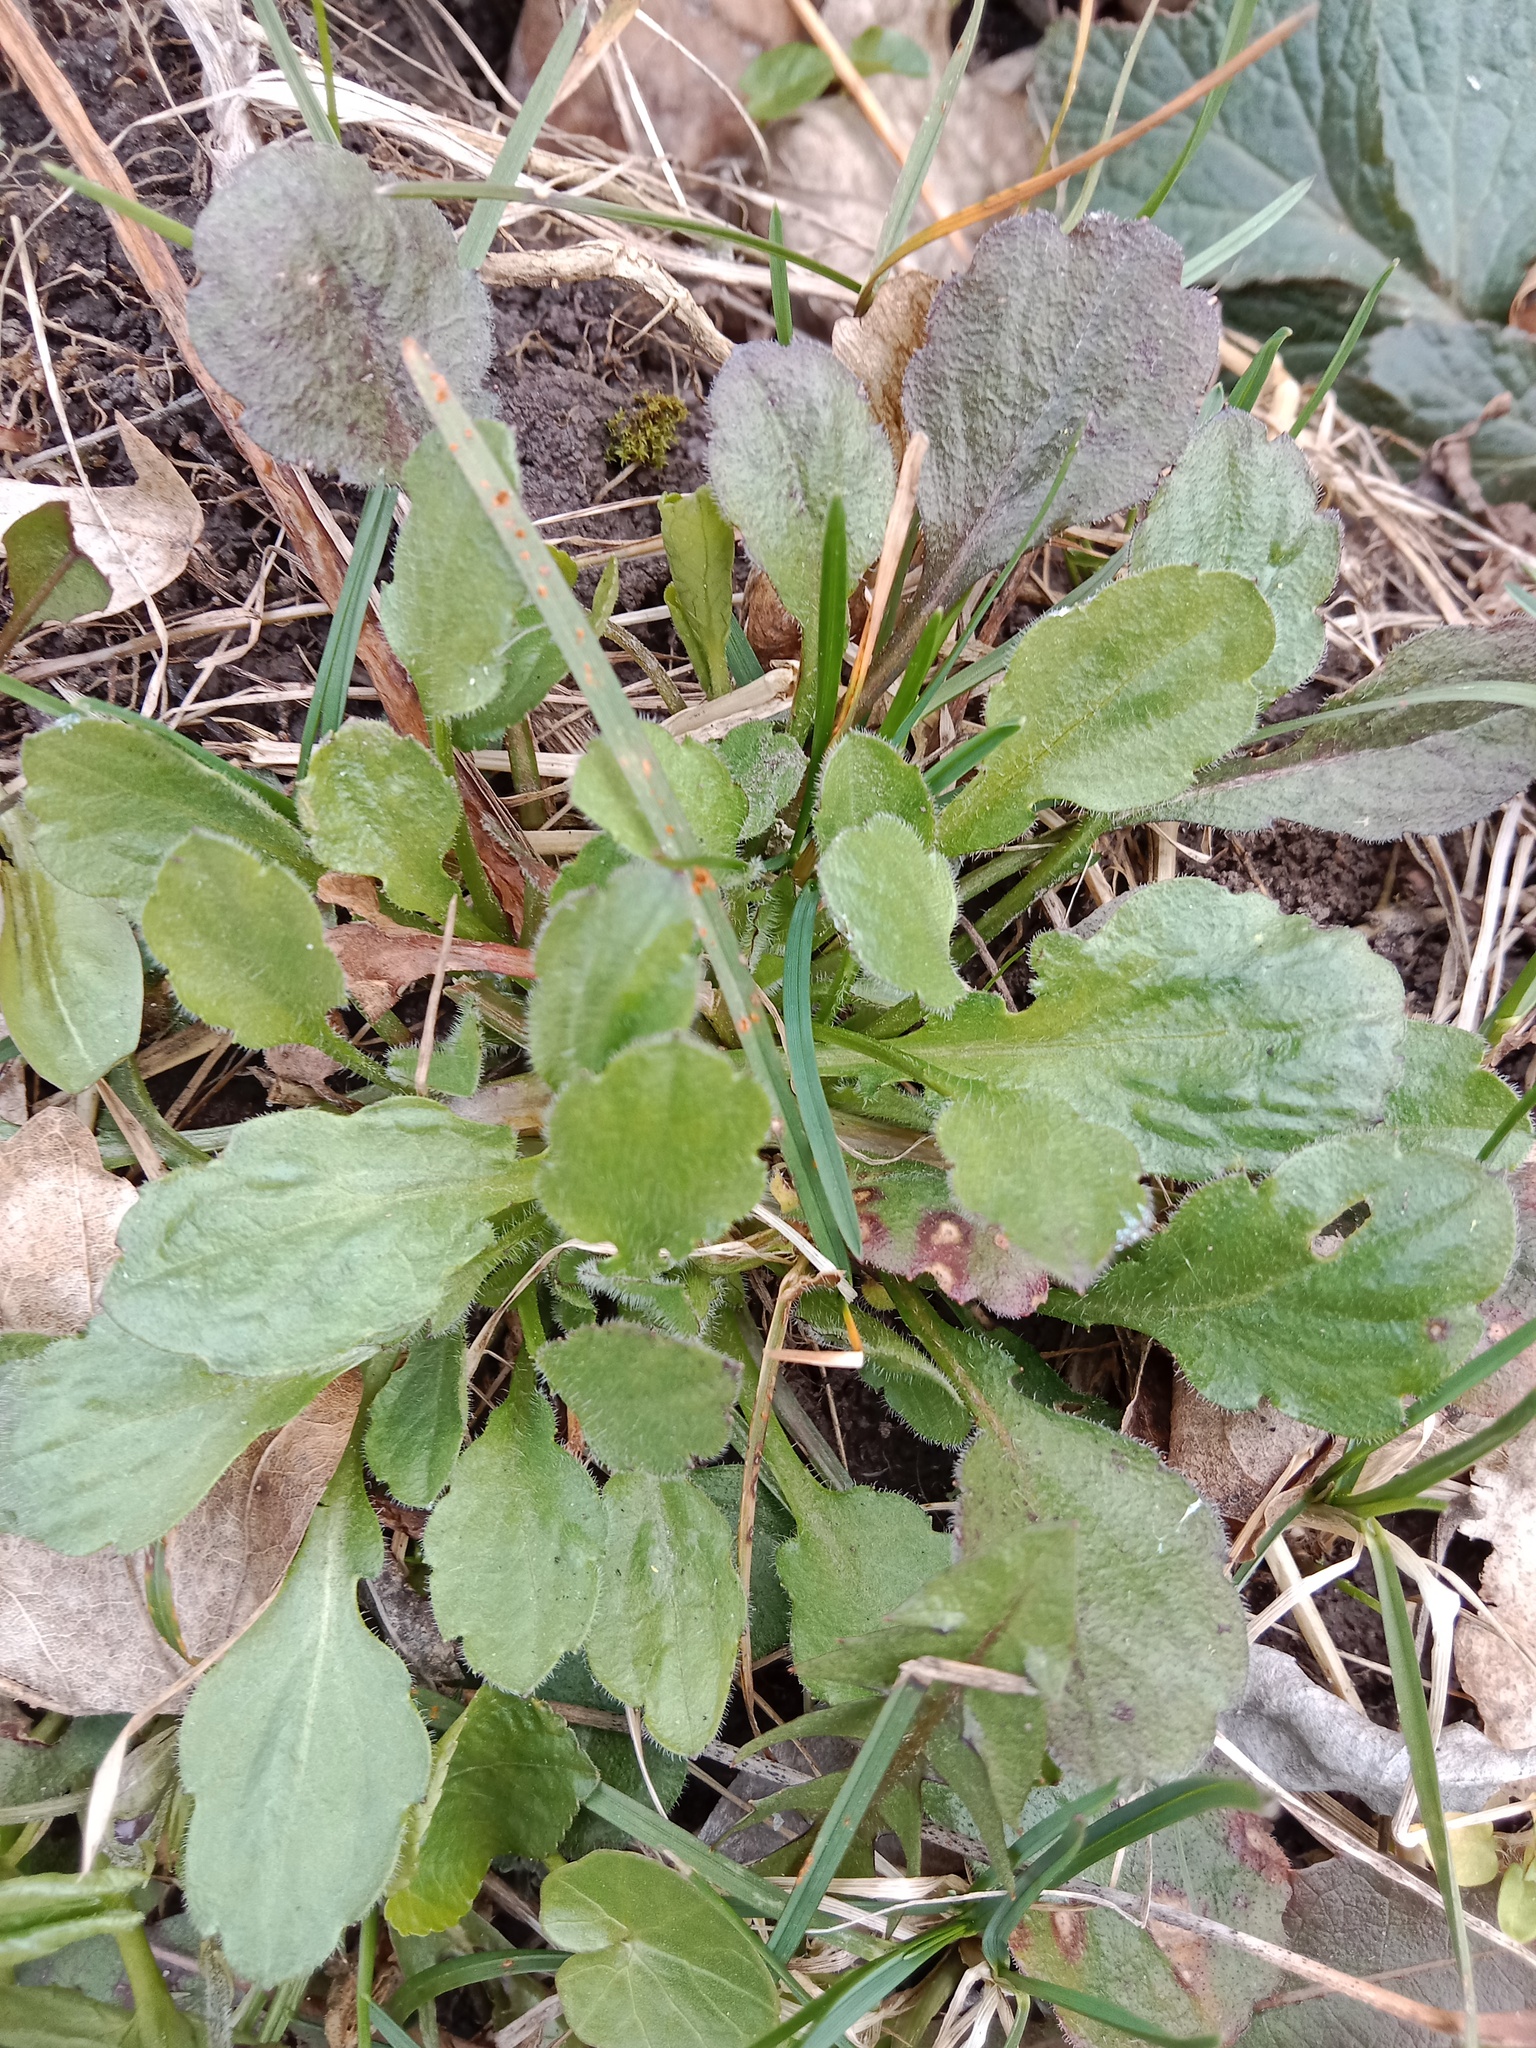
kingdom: Plantae
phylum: Tracheophyta
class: Magnoliopsida
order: Asterales
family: Asteraceae
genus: Erigeron
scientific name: Erigeron annuus
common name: Tall fleabane
